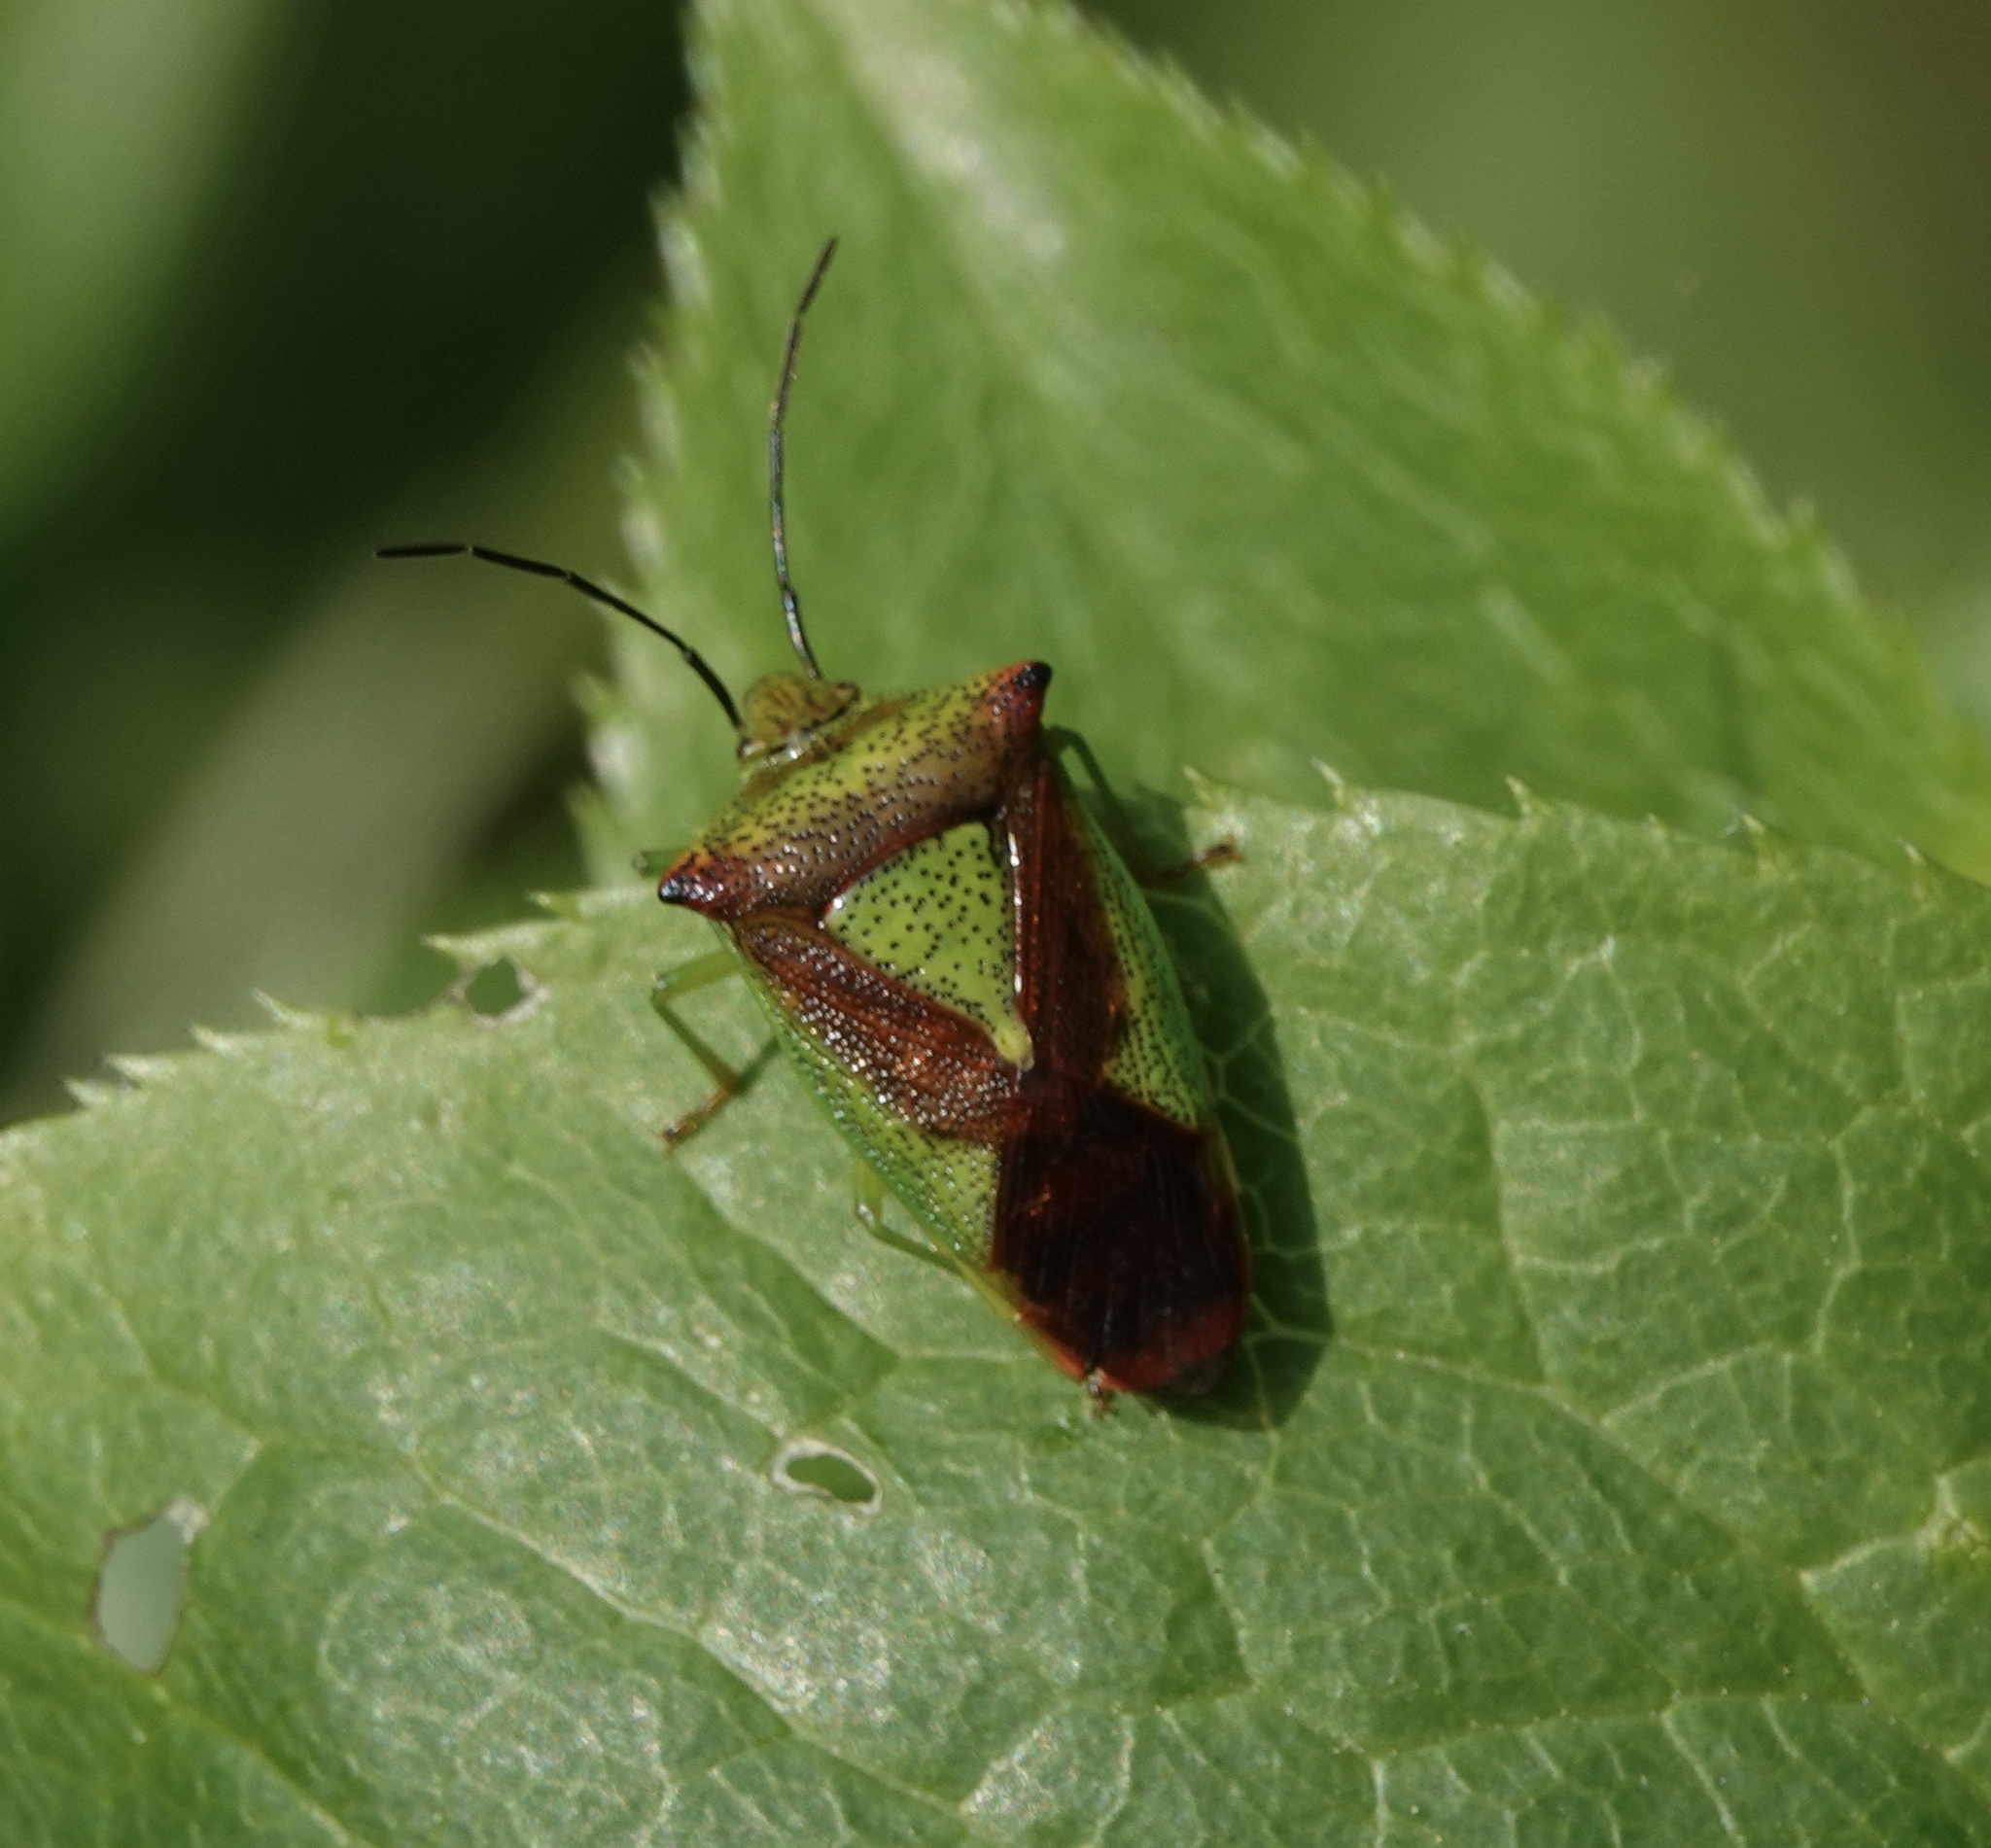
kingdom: Animalia
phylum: Arthropoda
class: Insecta
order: Hemiptera
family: Acanthosomatidae
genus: Acanthosoma
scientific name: Acanthosoma haemorrhoidale
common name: Hawthorn shieldbug
